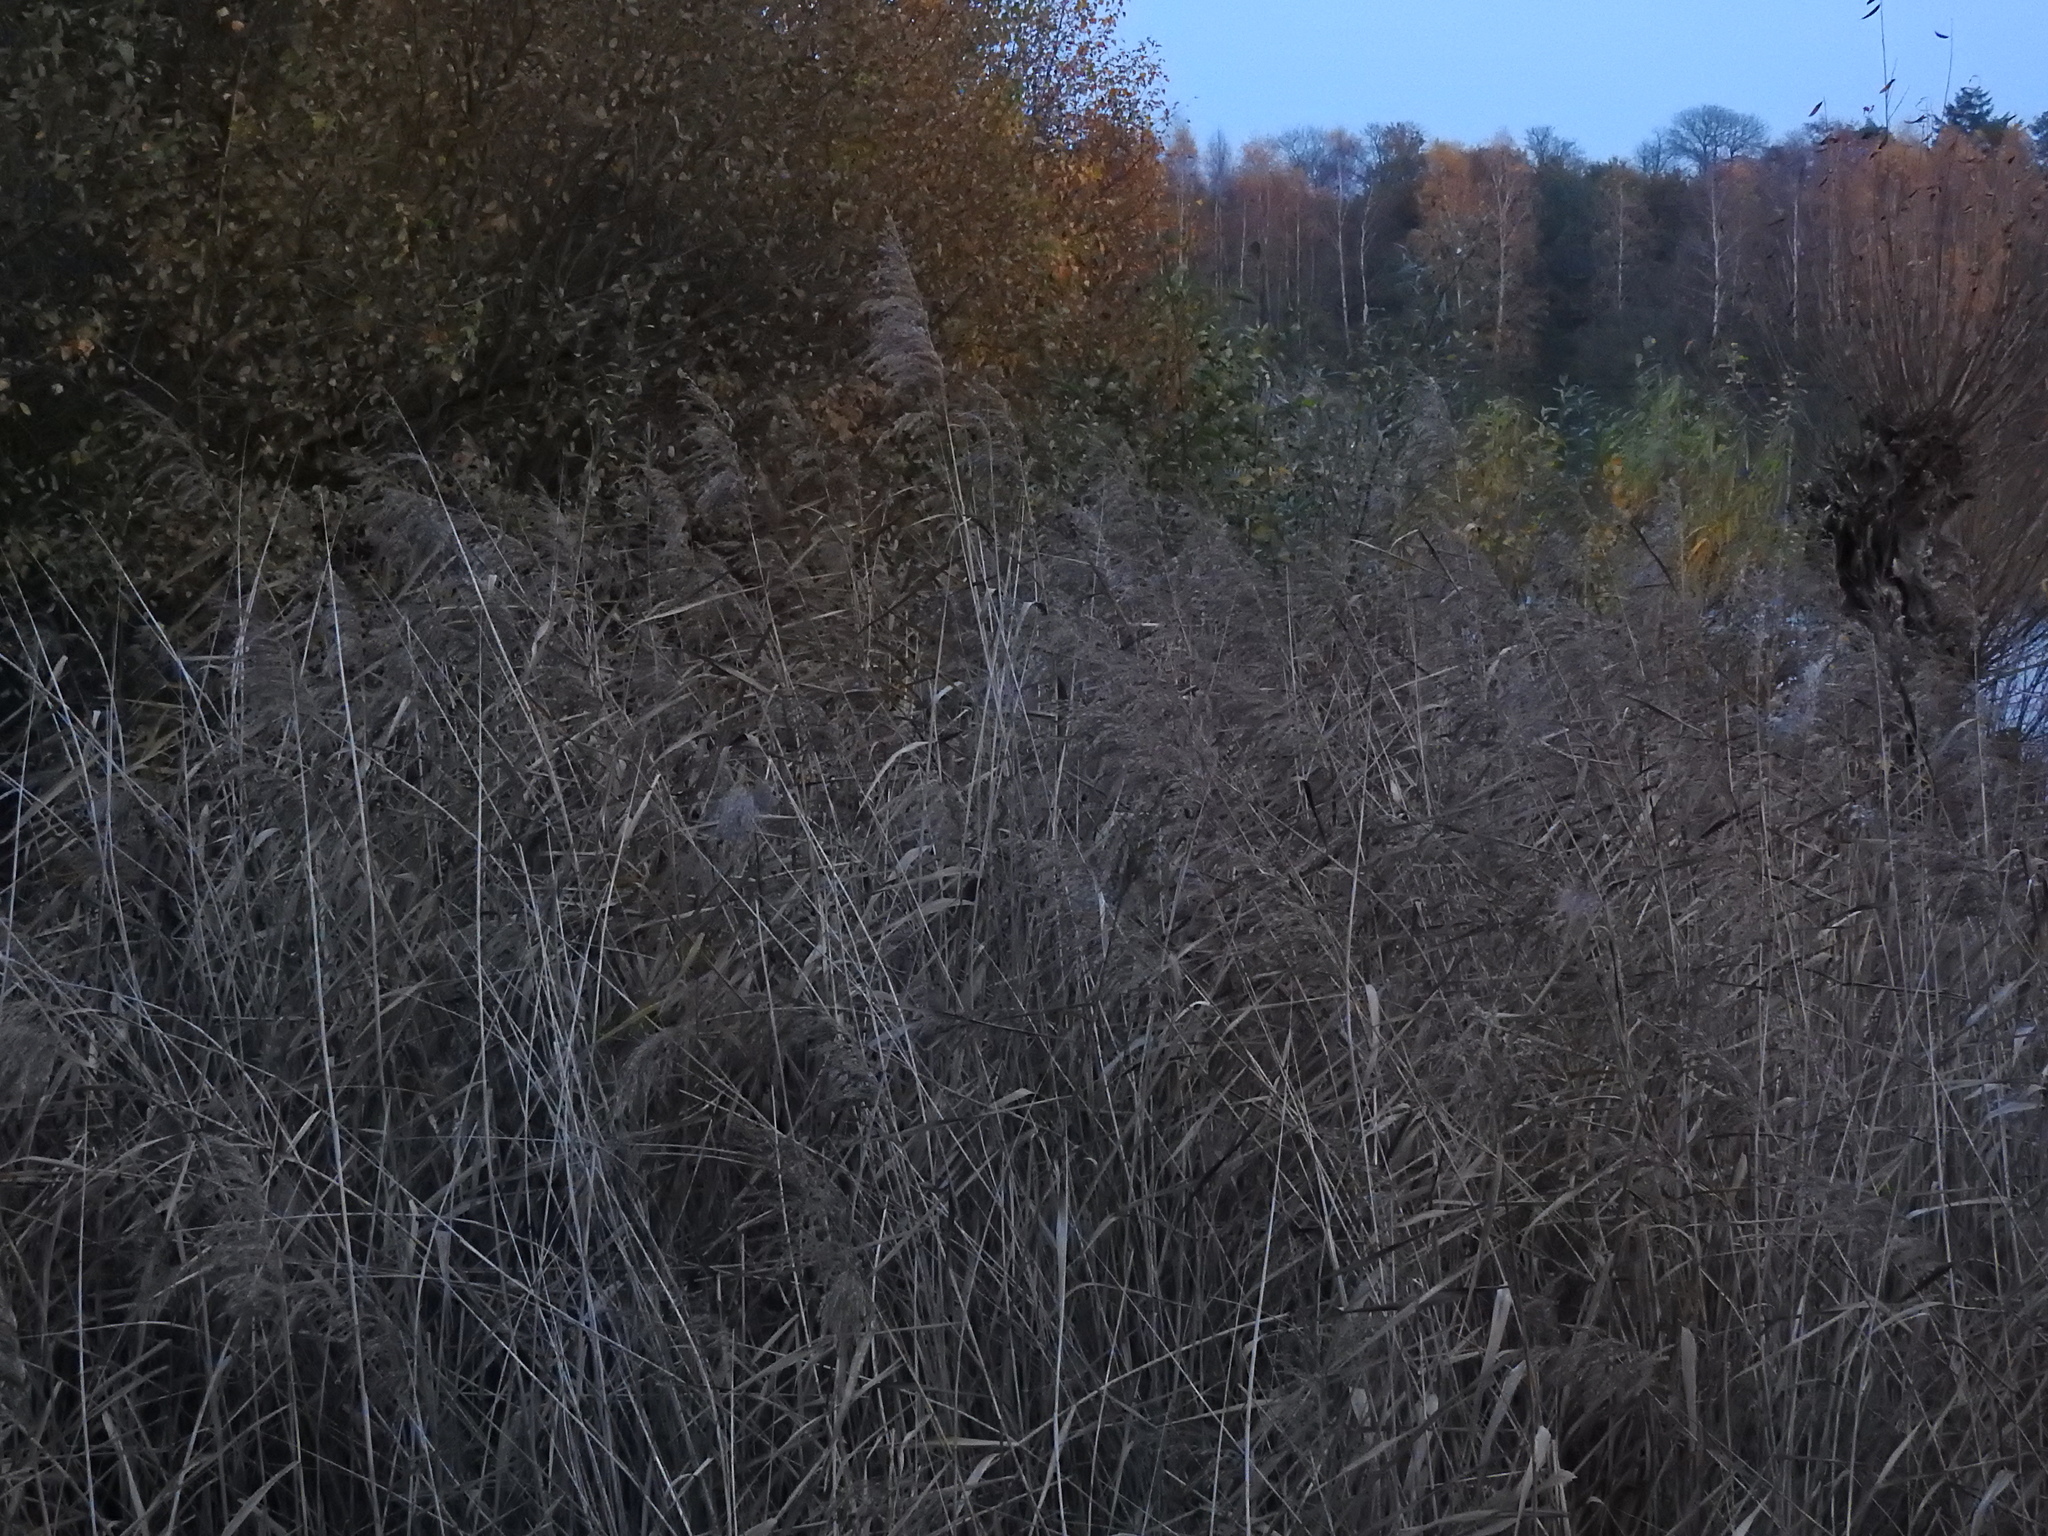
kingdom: Plantae
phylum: Tracheophyta
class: Liliopsida
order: Poales
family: Poaceae
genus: Phragmites
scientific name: Phragmites australis
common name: Common reed
